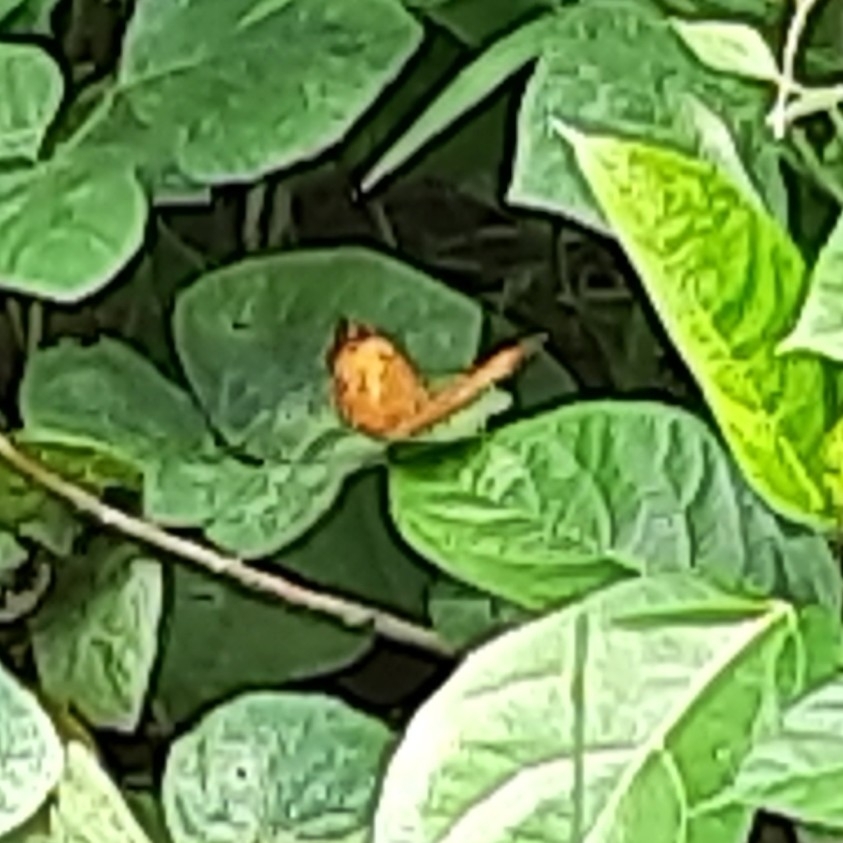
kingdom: Animalia
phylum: Arthropoda
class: Insecta
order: Lepidoptera
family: Nymphalidae
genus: Cirrochroa
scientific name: Cirrochroa thais
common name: Tamil yeoman
